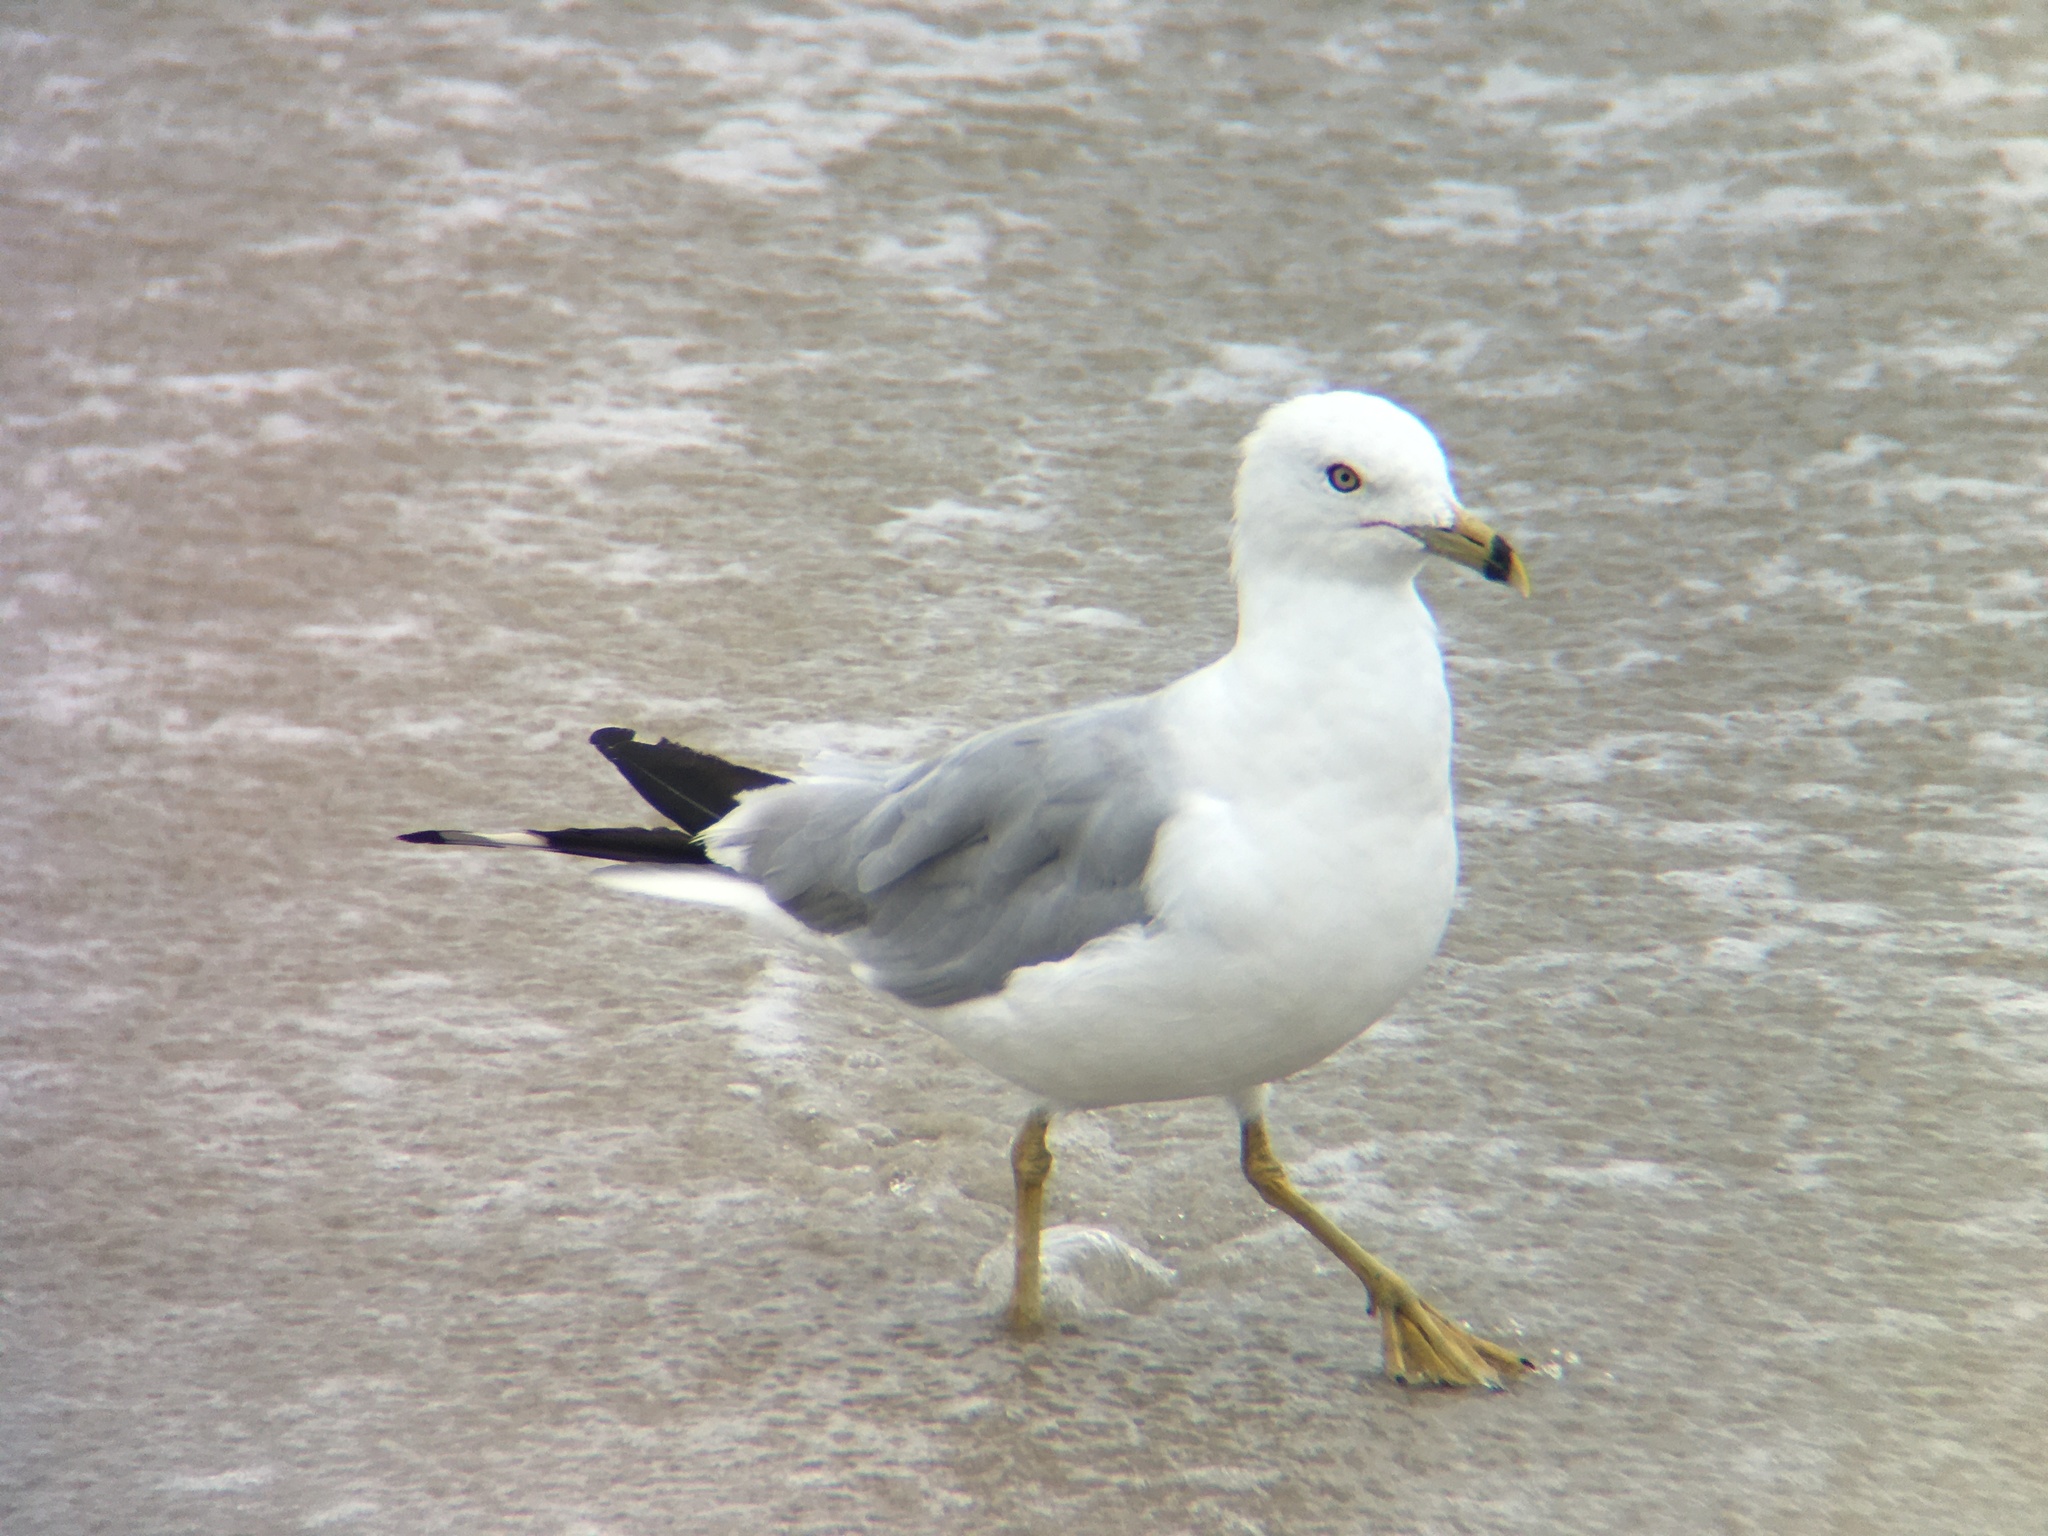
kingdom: Animalia
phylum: Chordata
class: Aves
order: Charadriiformes
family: Laridae
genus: Larus
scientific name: Larus delawarensis
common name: Ring-billed gull
